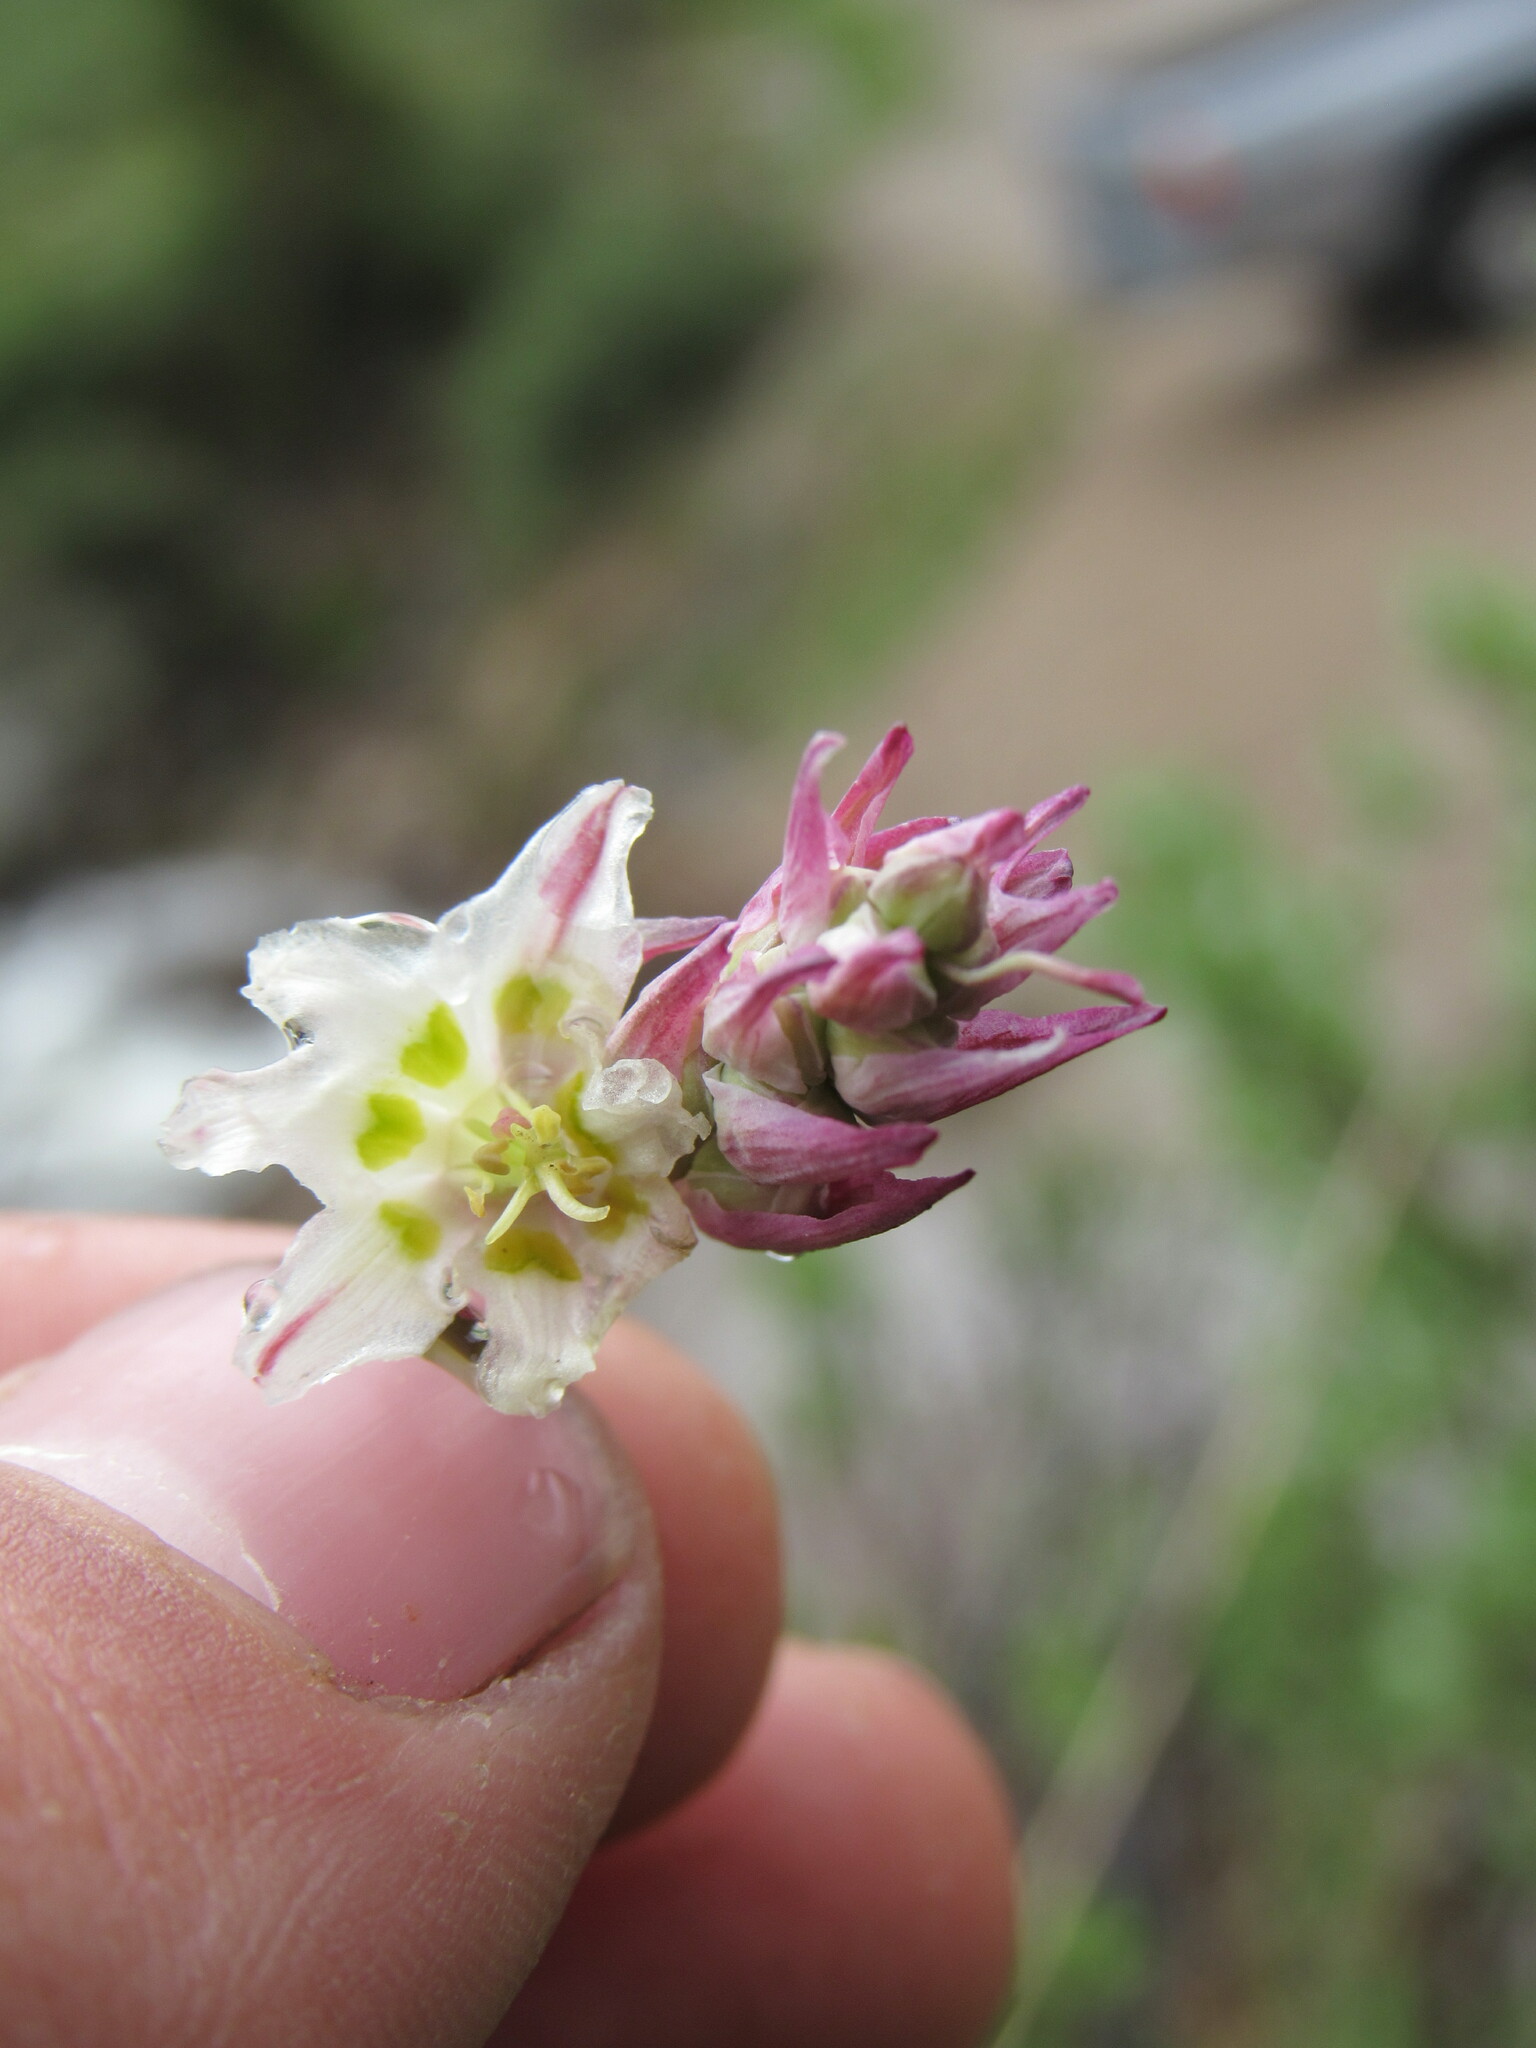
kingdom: Plantae
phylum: Tracheophyta
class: Liliopsida
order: Liliales
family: Melanthiaceae
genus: Anticlea
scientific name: Anticlea elegans
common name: Mountain death camas
